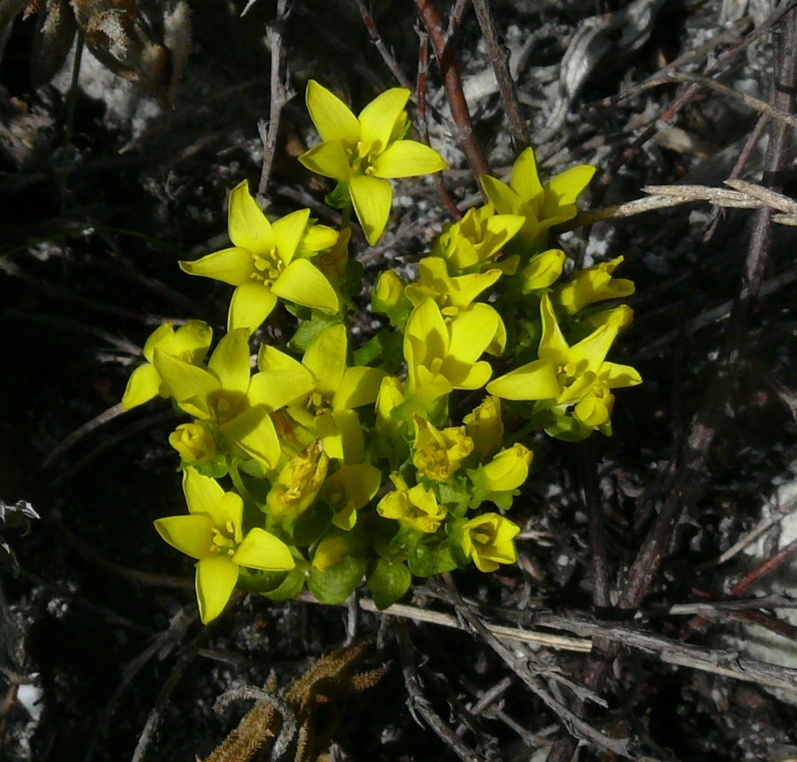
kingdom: Plantae
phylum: Tracheophyta
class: Magnoliopsida
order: Gentianales
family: Gentianaceae
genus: Sebaea
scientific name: Sebaea sulphurea
